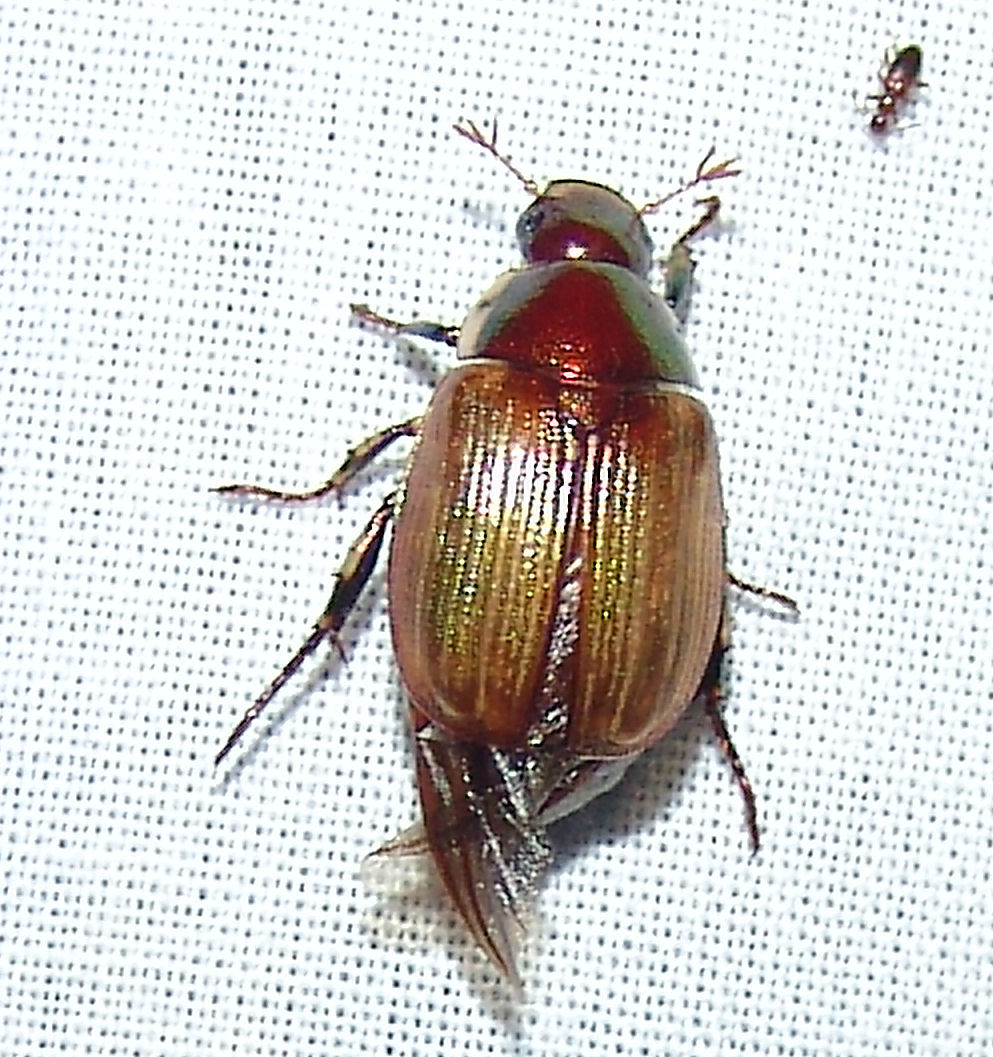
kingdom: Animalia
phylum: Arthropoda
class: Insecta
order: Coleoptera
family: Scarabaeidae
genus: Callistethus
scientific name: Callistethus marginatus
